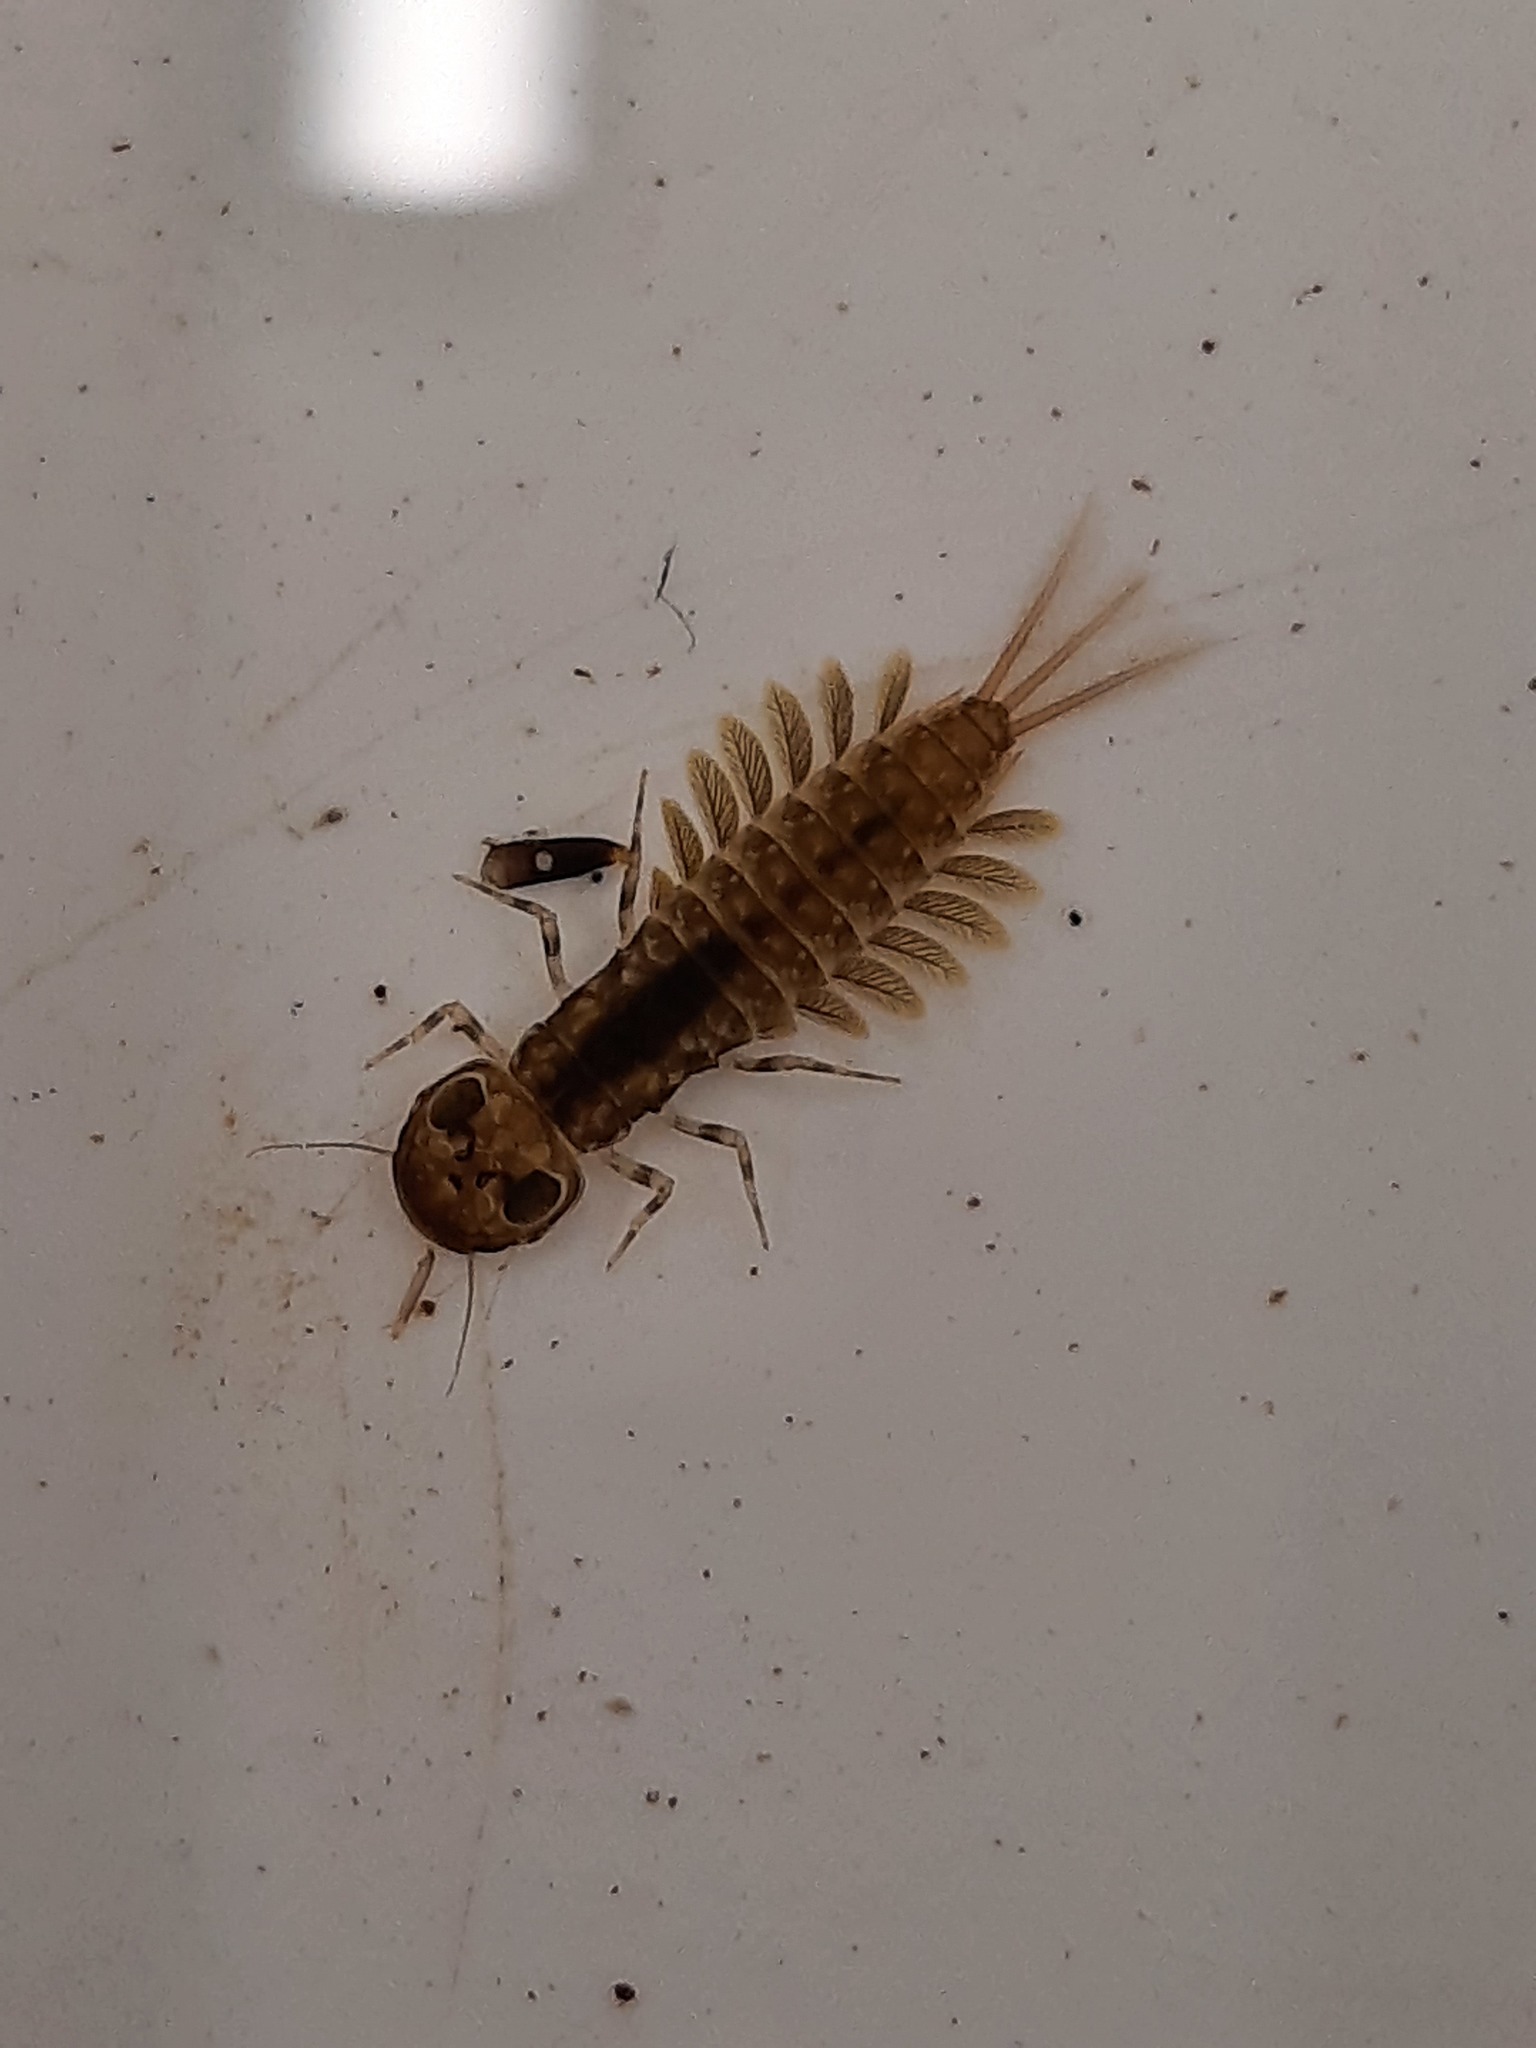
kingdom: Animalia
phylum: Arthropoda
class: Insecta
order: Ephemeroptera
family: Ameletopsidae
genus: Ameletopsis
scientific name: Ameletopsis perscitus
